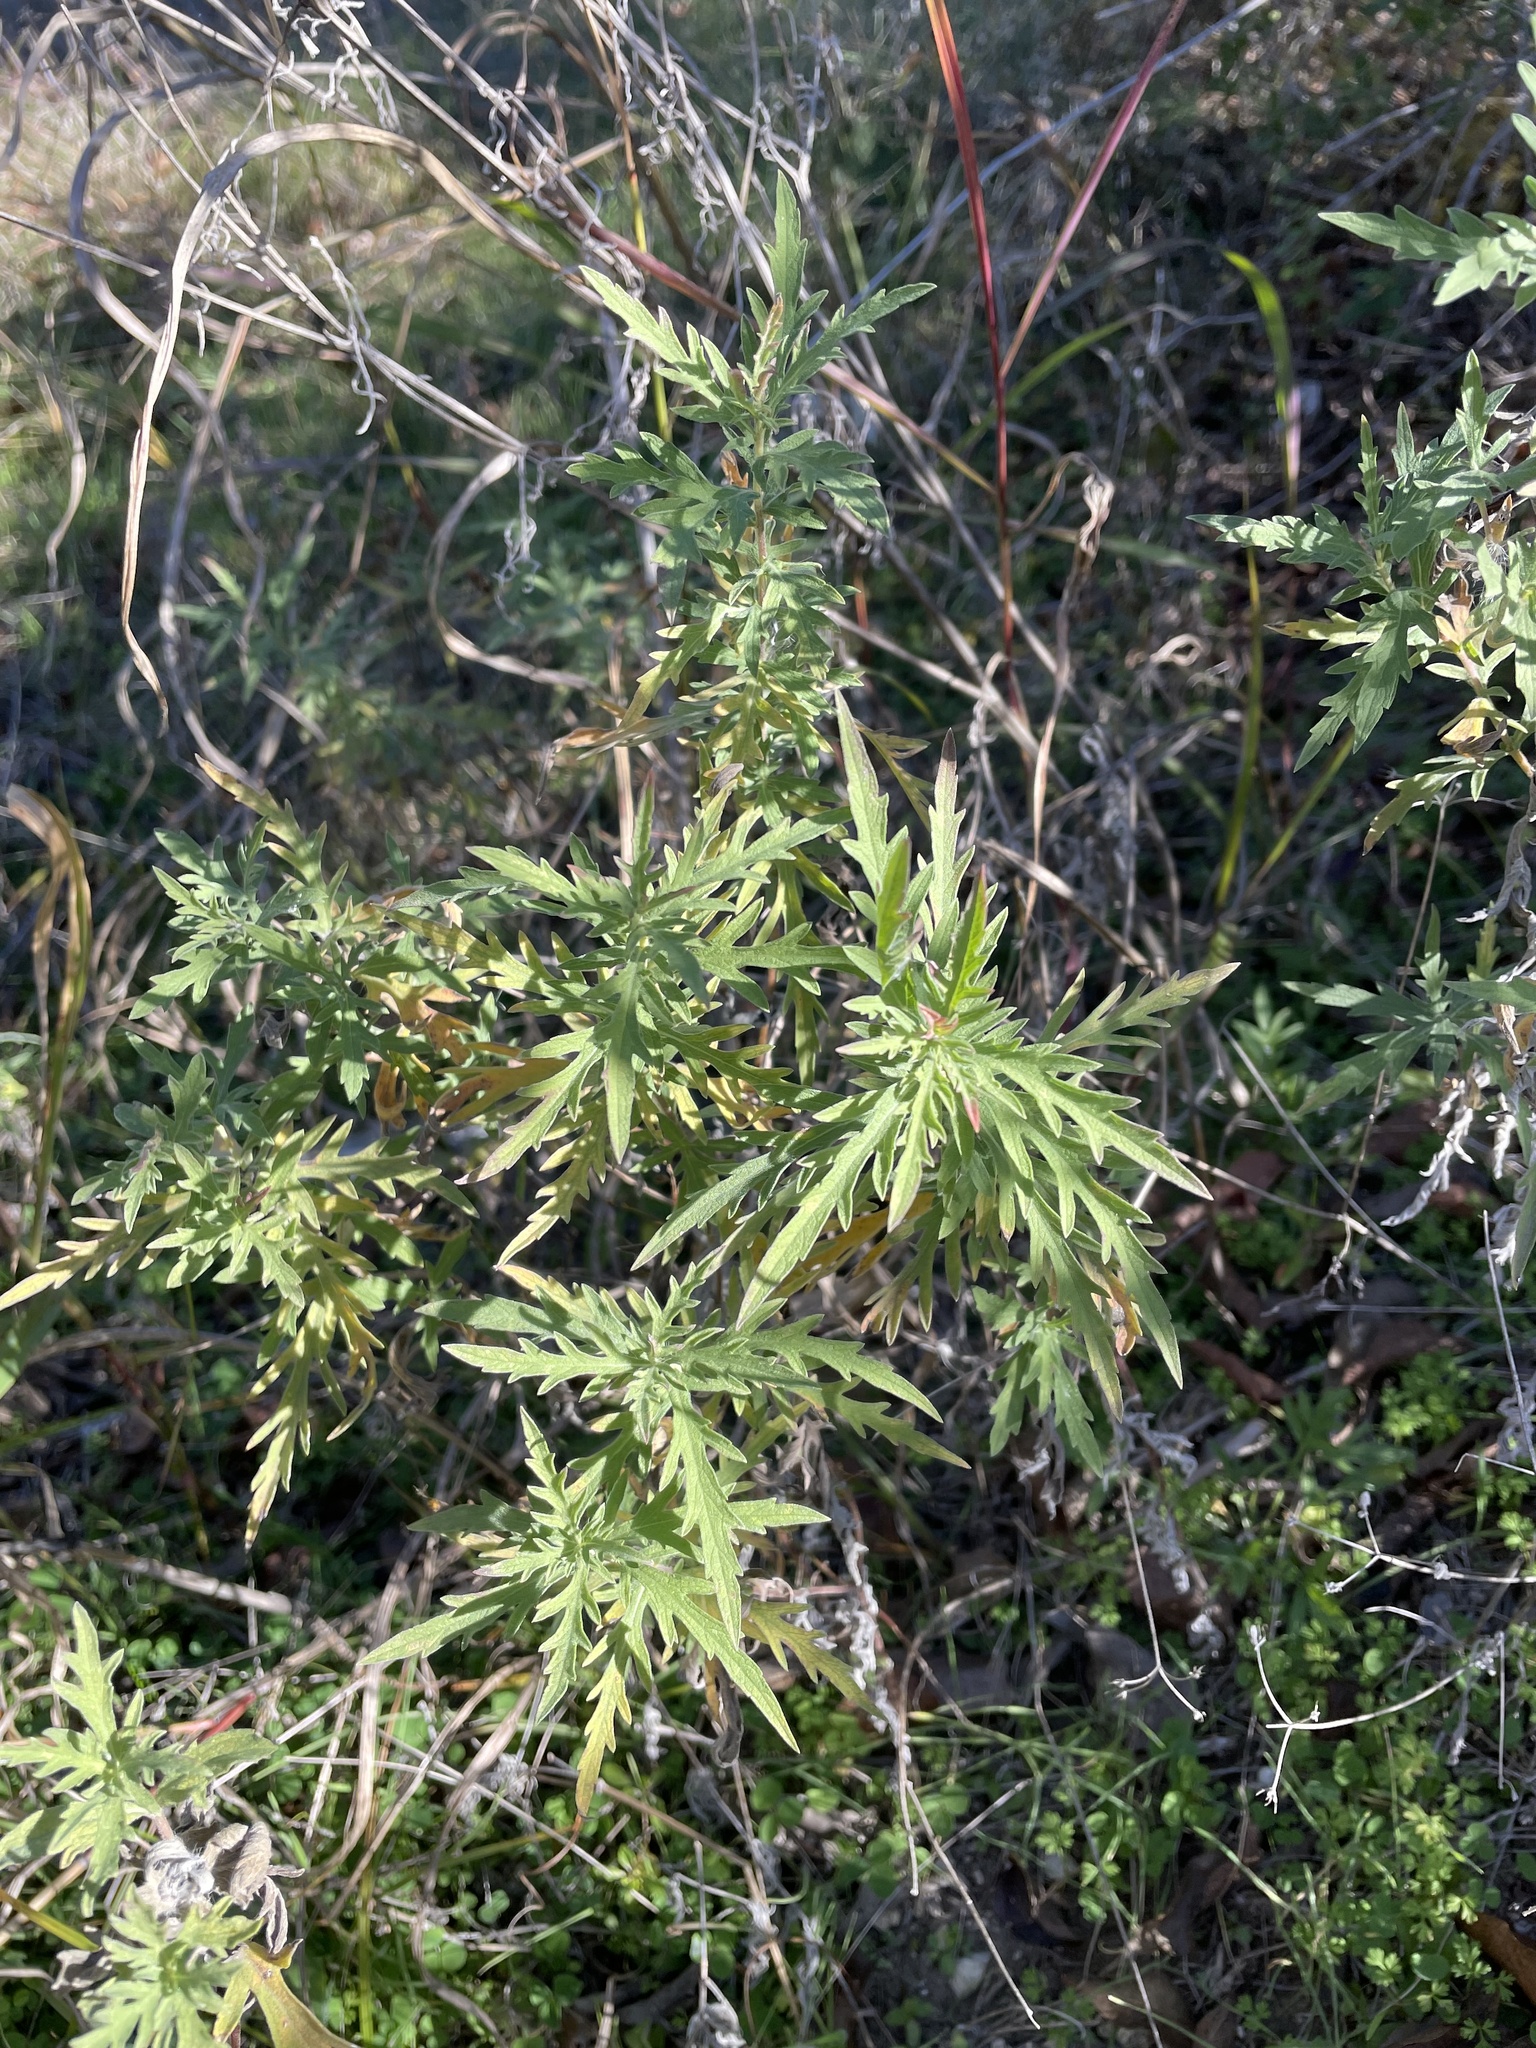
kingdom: Plantae
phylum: Tracheophyta
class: Magnoliopsida
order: Asterales
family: Asteraceae
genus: Ambrosia
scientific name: Ambrosia psilostachya
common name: Perennial ragweed
